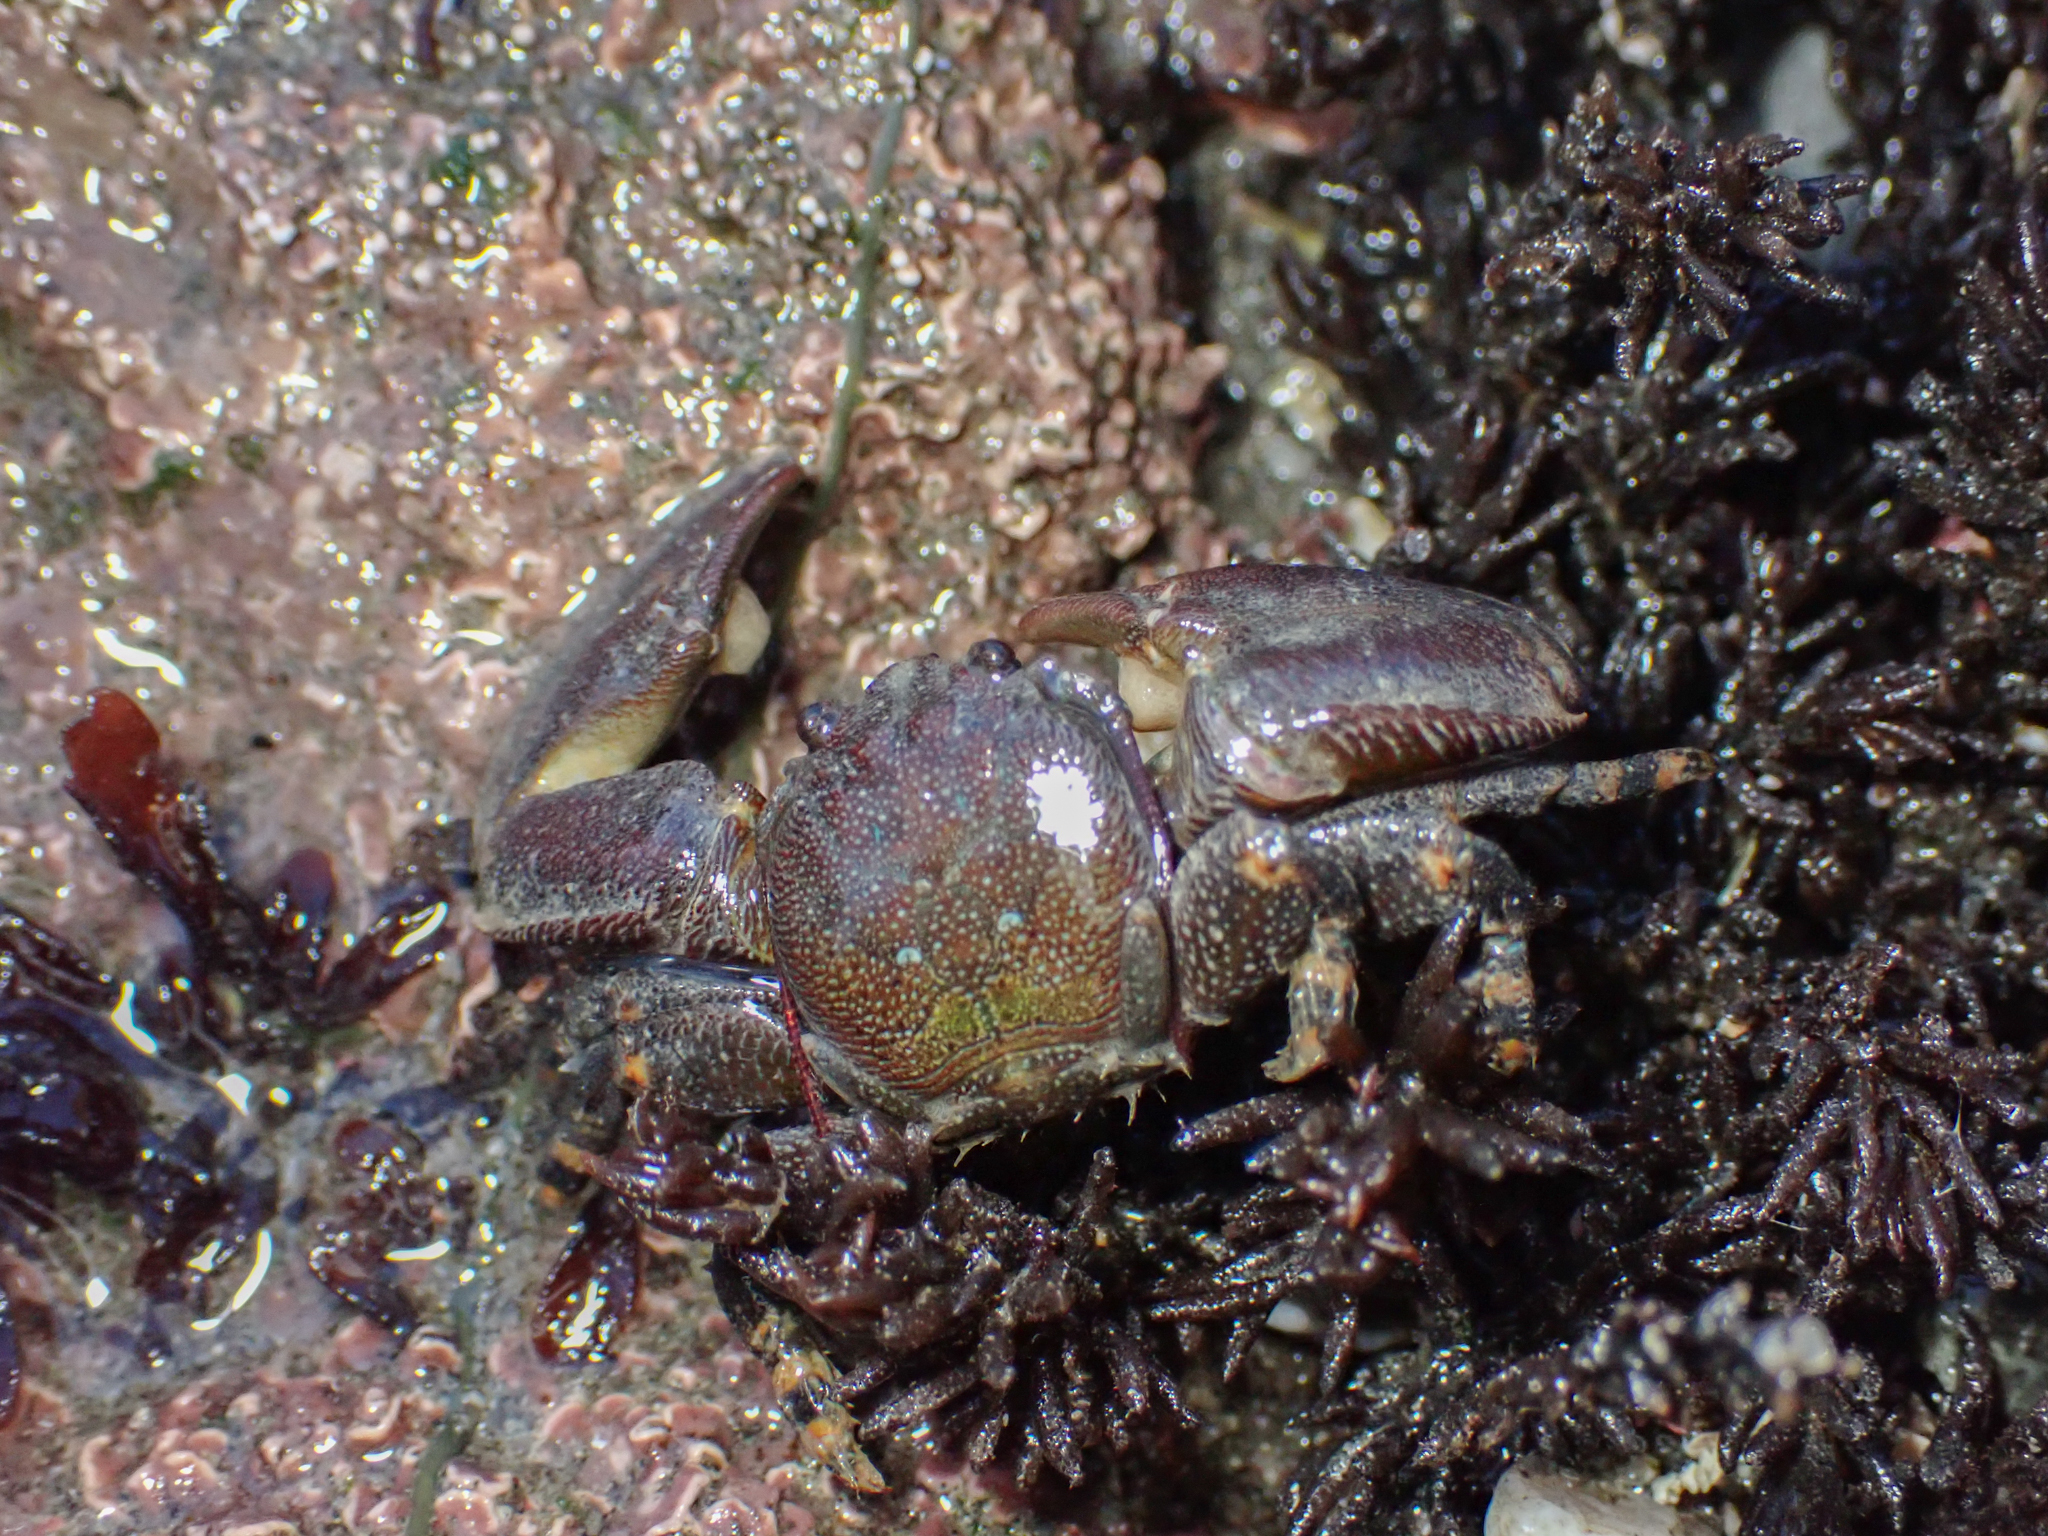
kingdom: Animalia
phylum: Arthropoda
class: Malacostraca
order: Decapoda
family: Porcellanidae
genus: Petrolisthes
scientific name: Petrolisthes cinctipes
